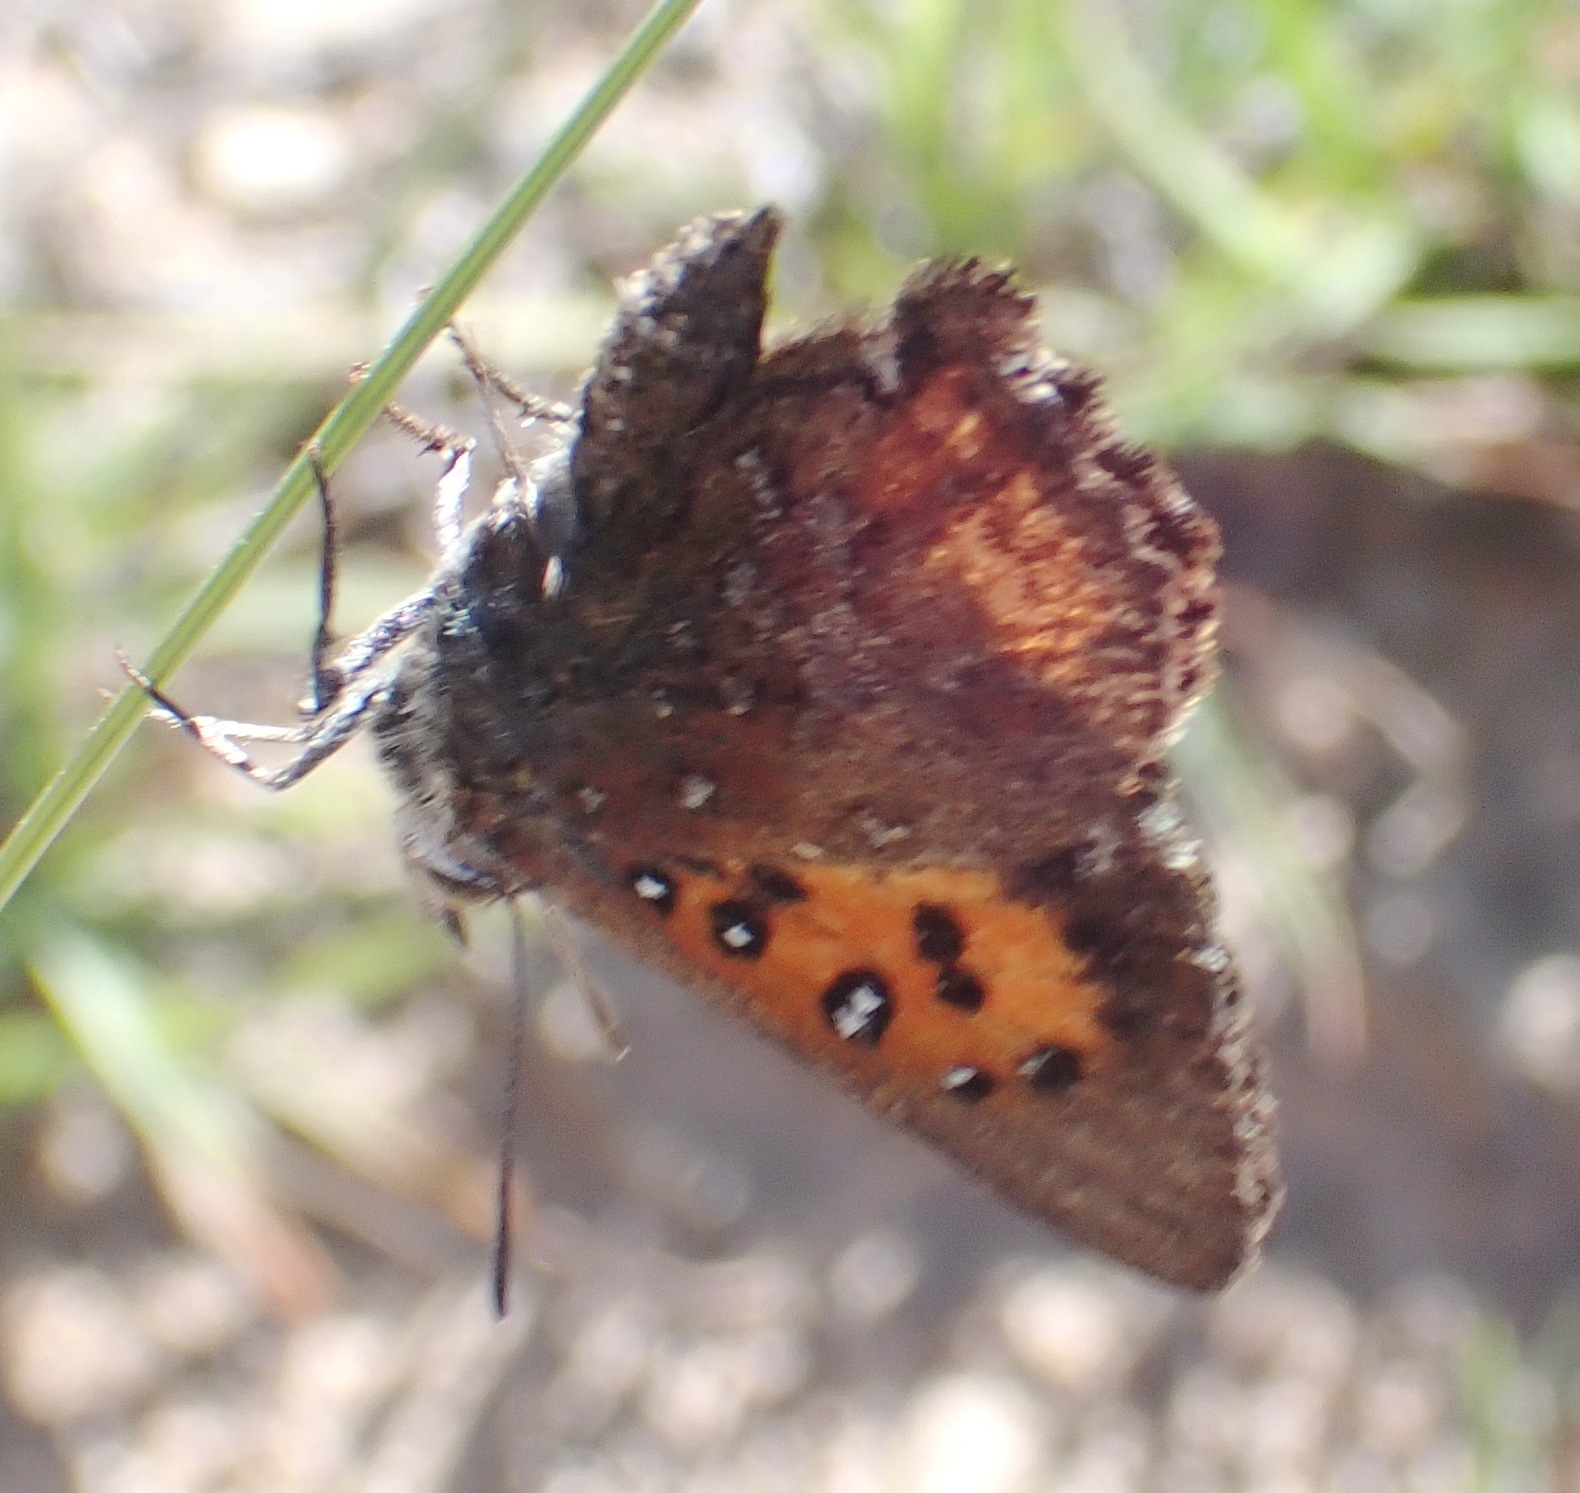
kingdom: Animalia
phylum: Arthropoda
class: Insecta
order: Lepidoptera
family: Lycaenidae
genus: Aloeides
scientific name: Aloeides quickelbergei
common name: Quickelberge's copper
